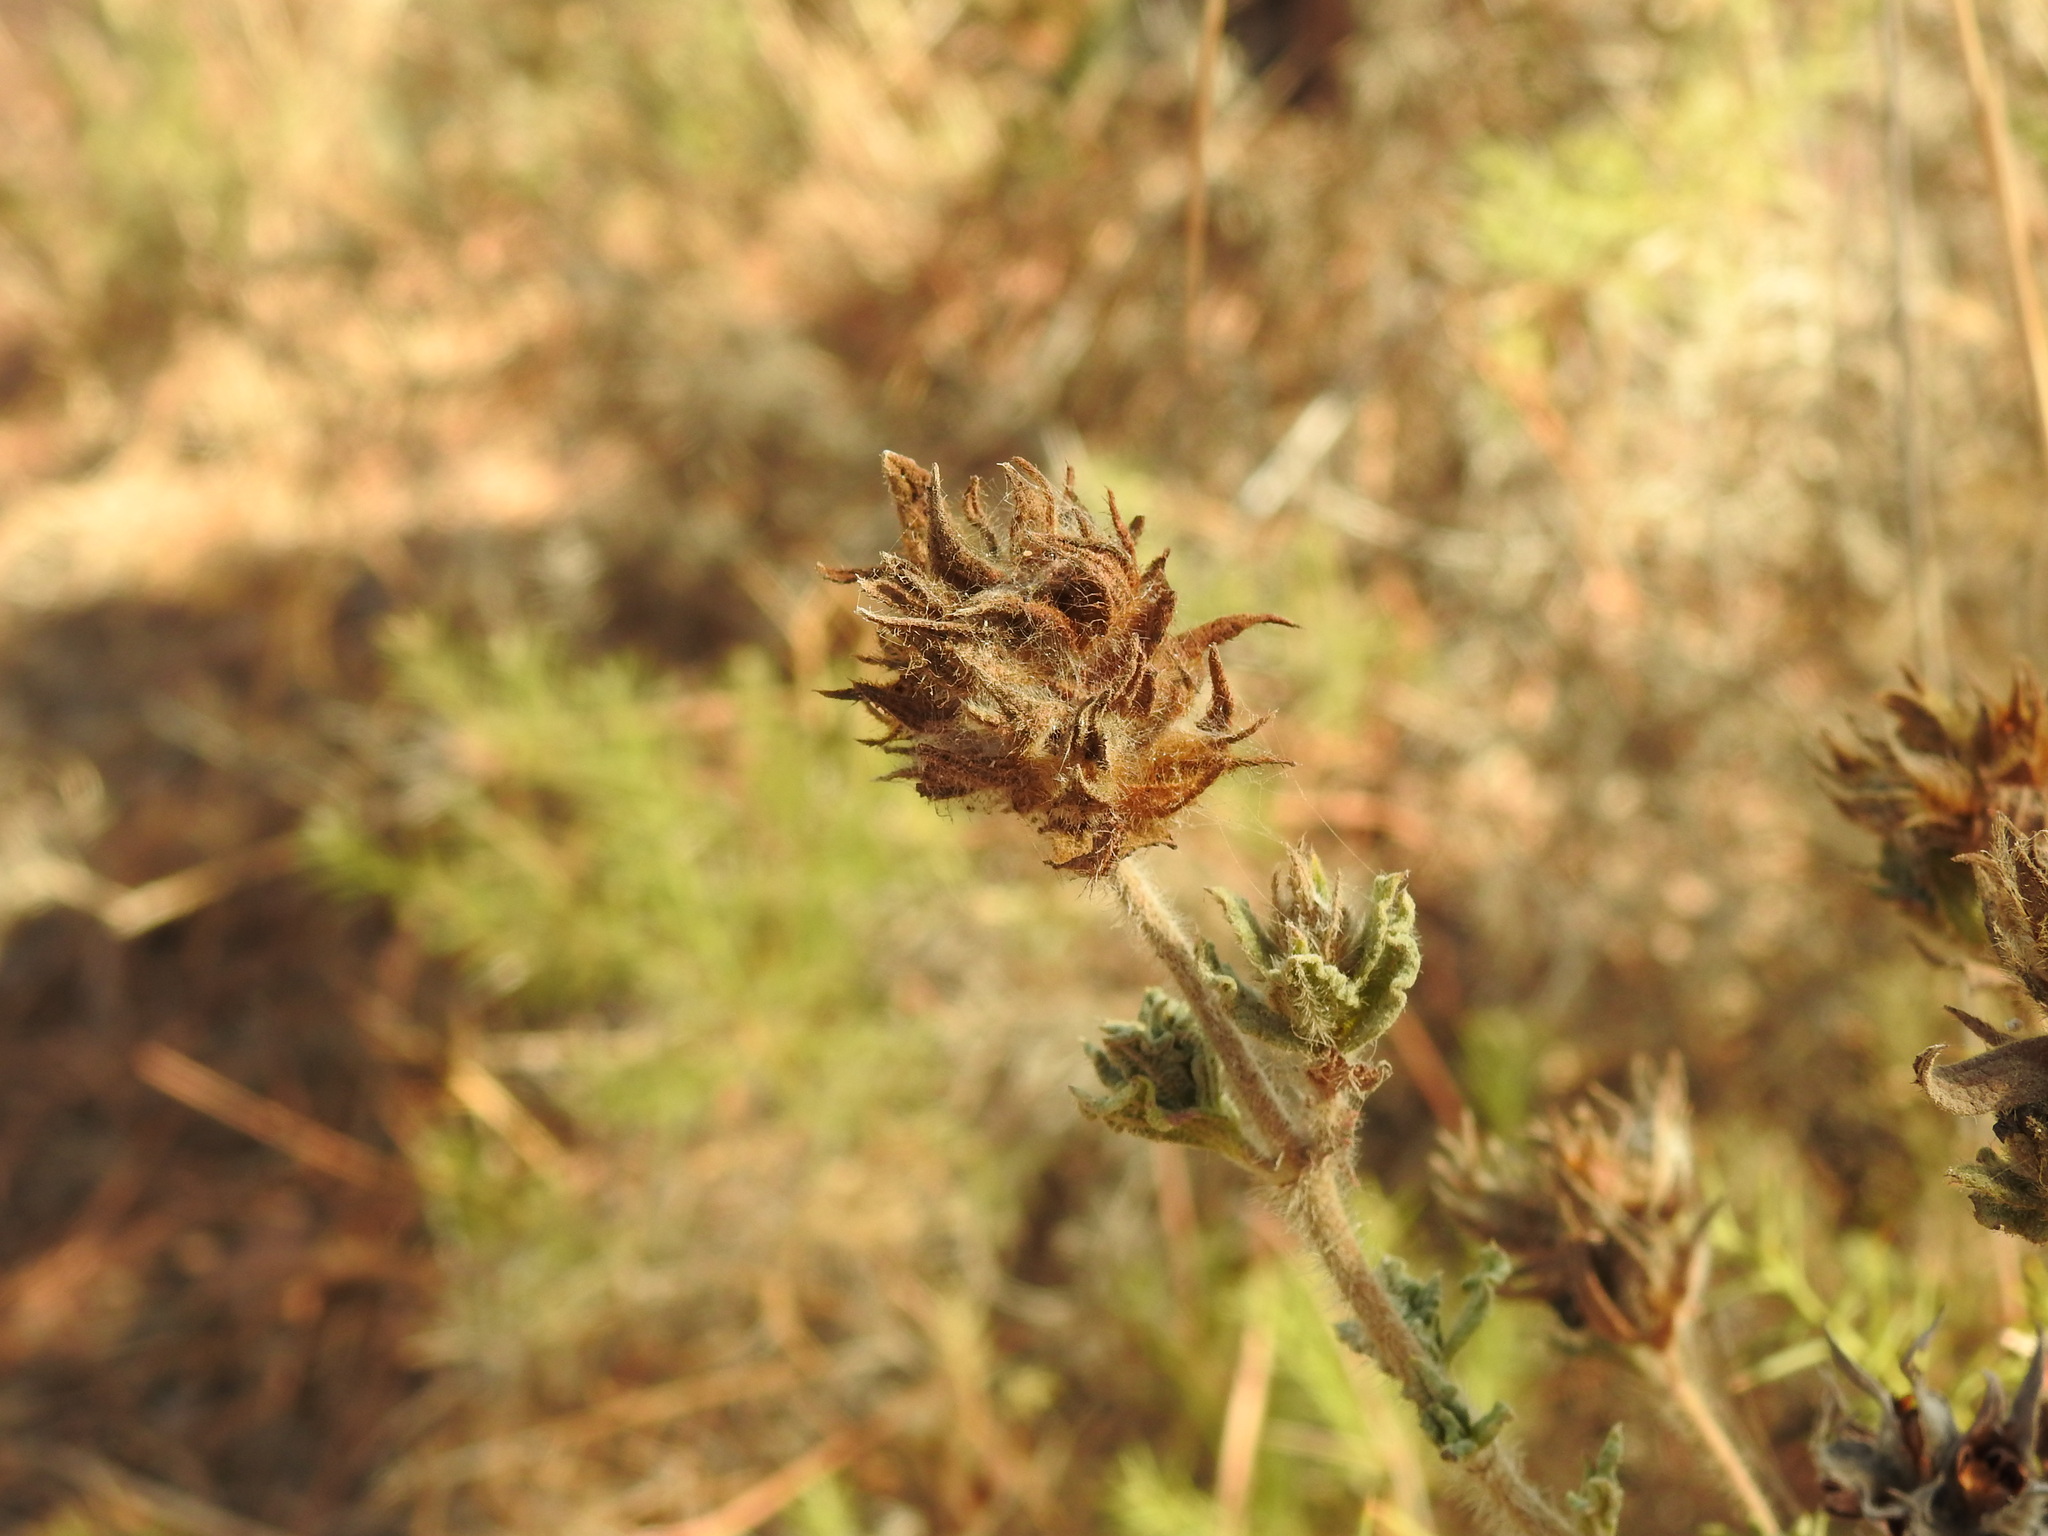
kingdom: Plantae
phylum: Tracheophyta
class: Magnoliopsida
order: Malvales
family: Cistaceae
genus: Cistus
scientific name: Cistus crispus
